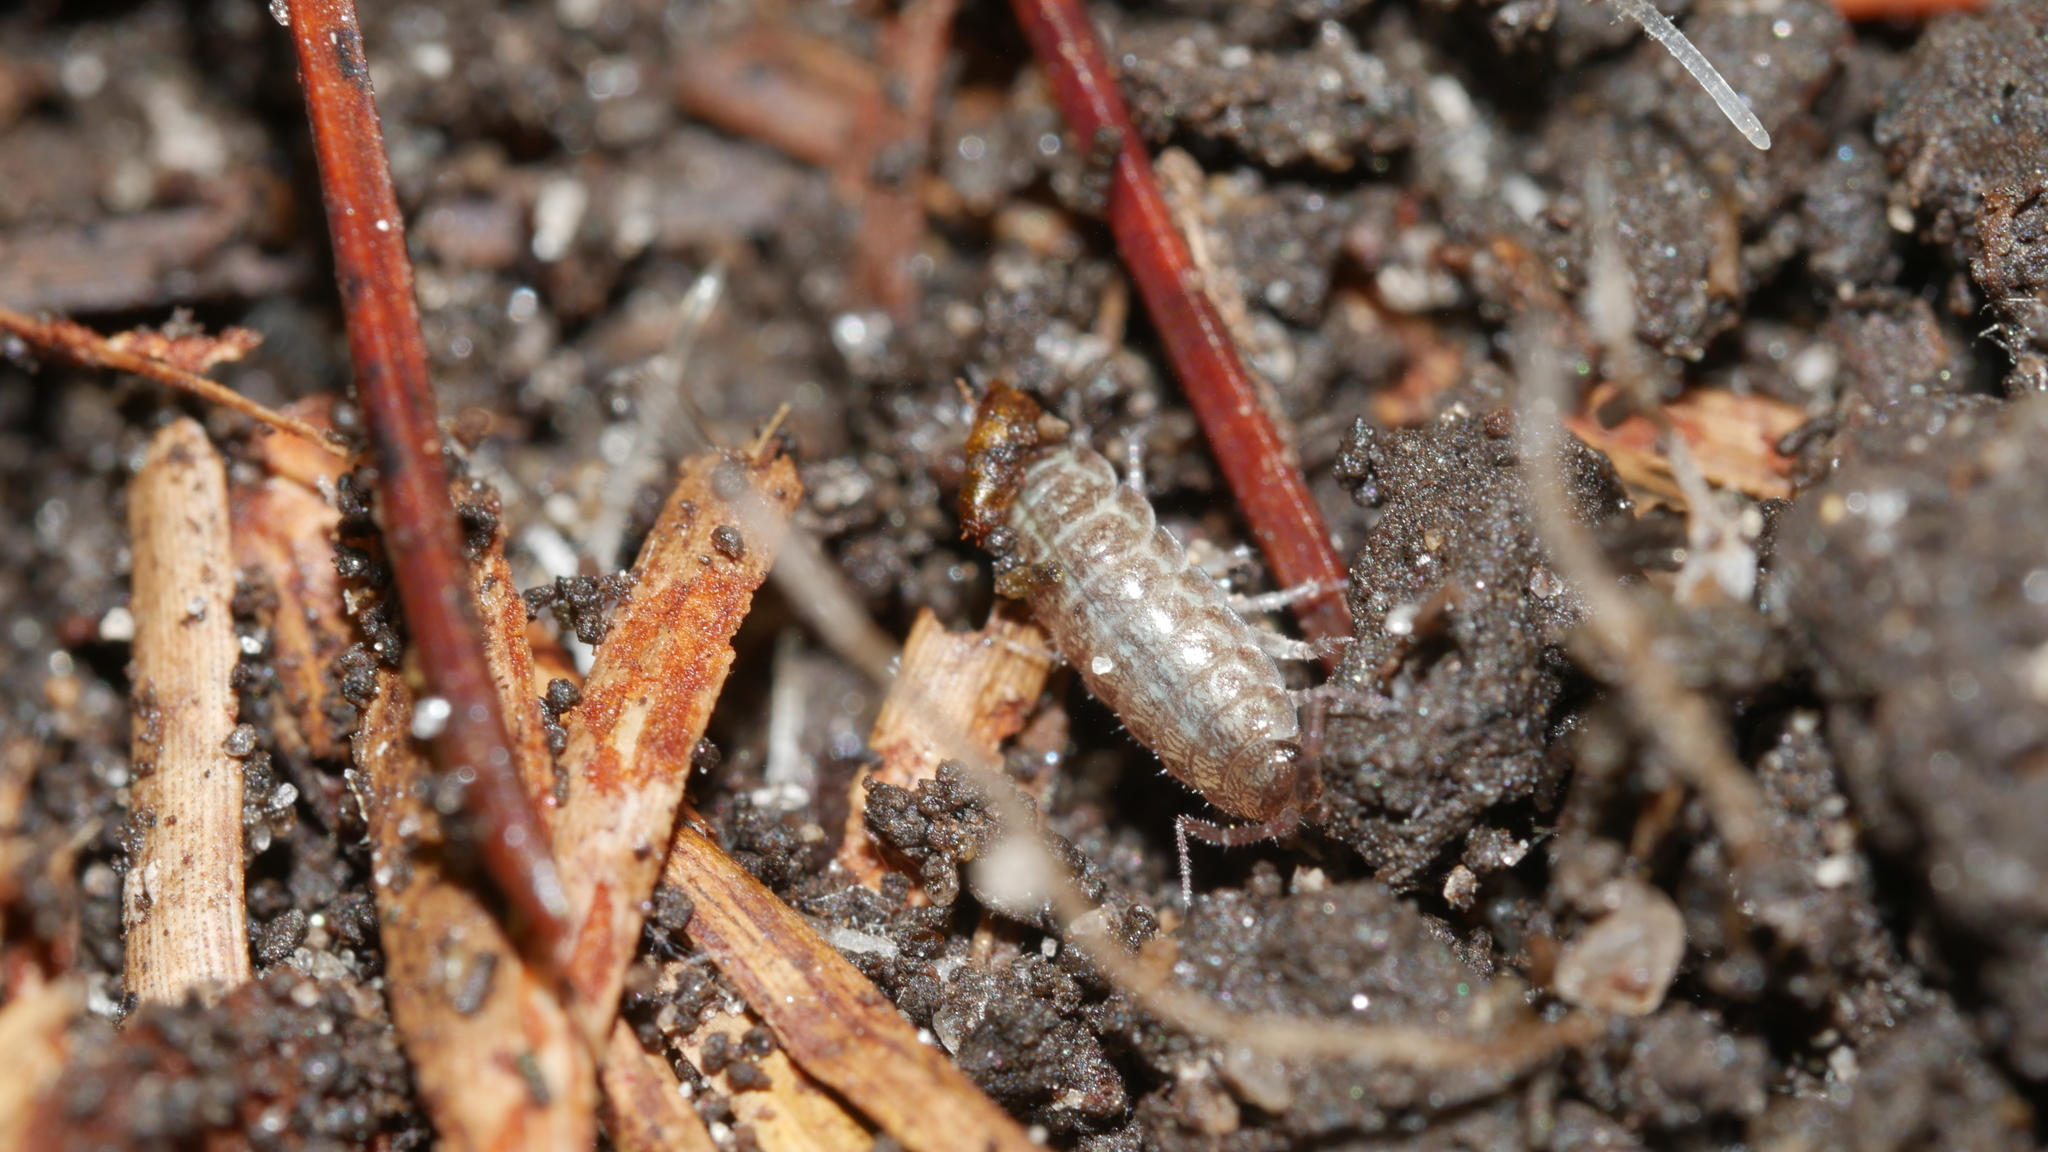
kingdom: Animalia
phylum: Arthropoda
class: Malacostraca
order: Isopoda
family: Philosciidae
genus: Chaetophiloscia
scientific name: Chaetophiloscia sicula
